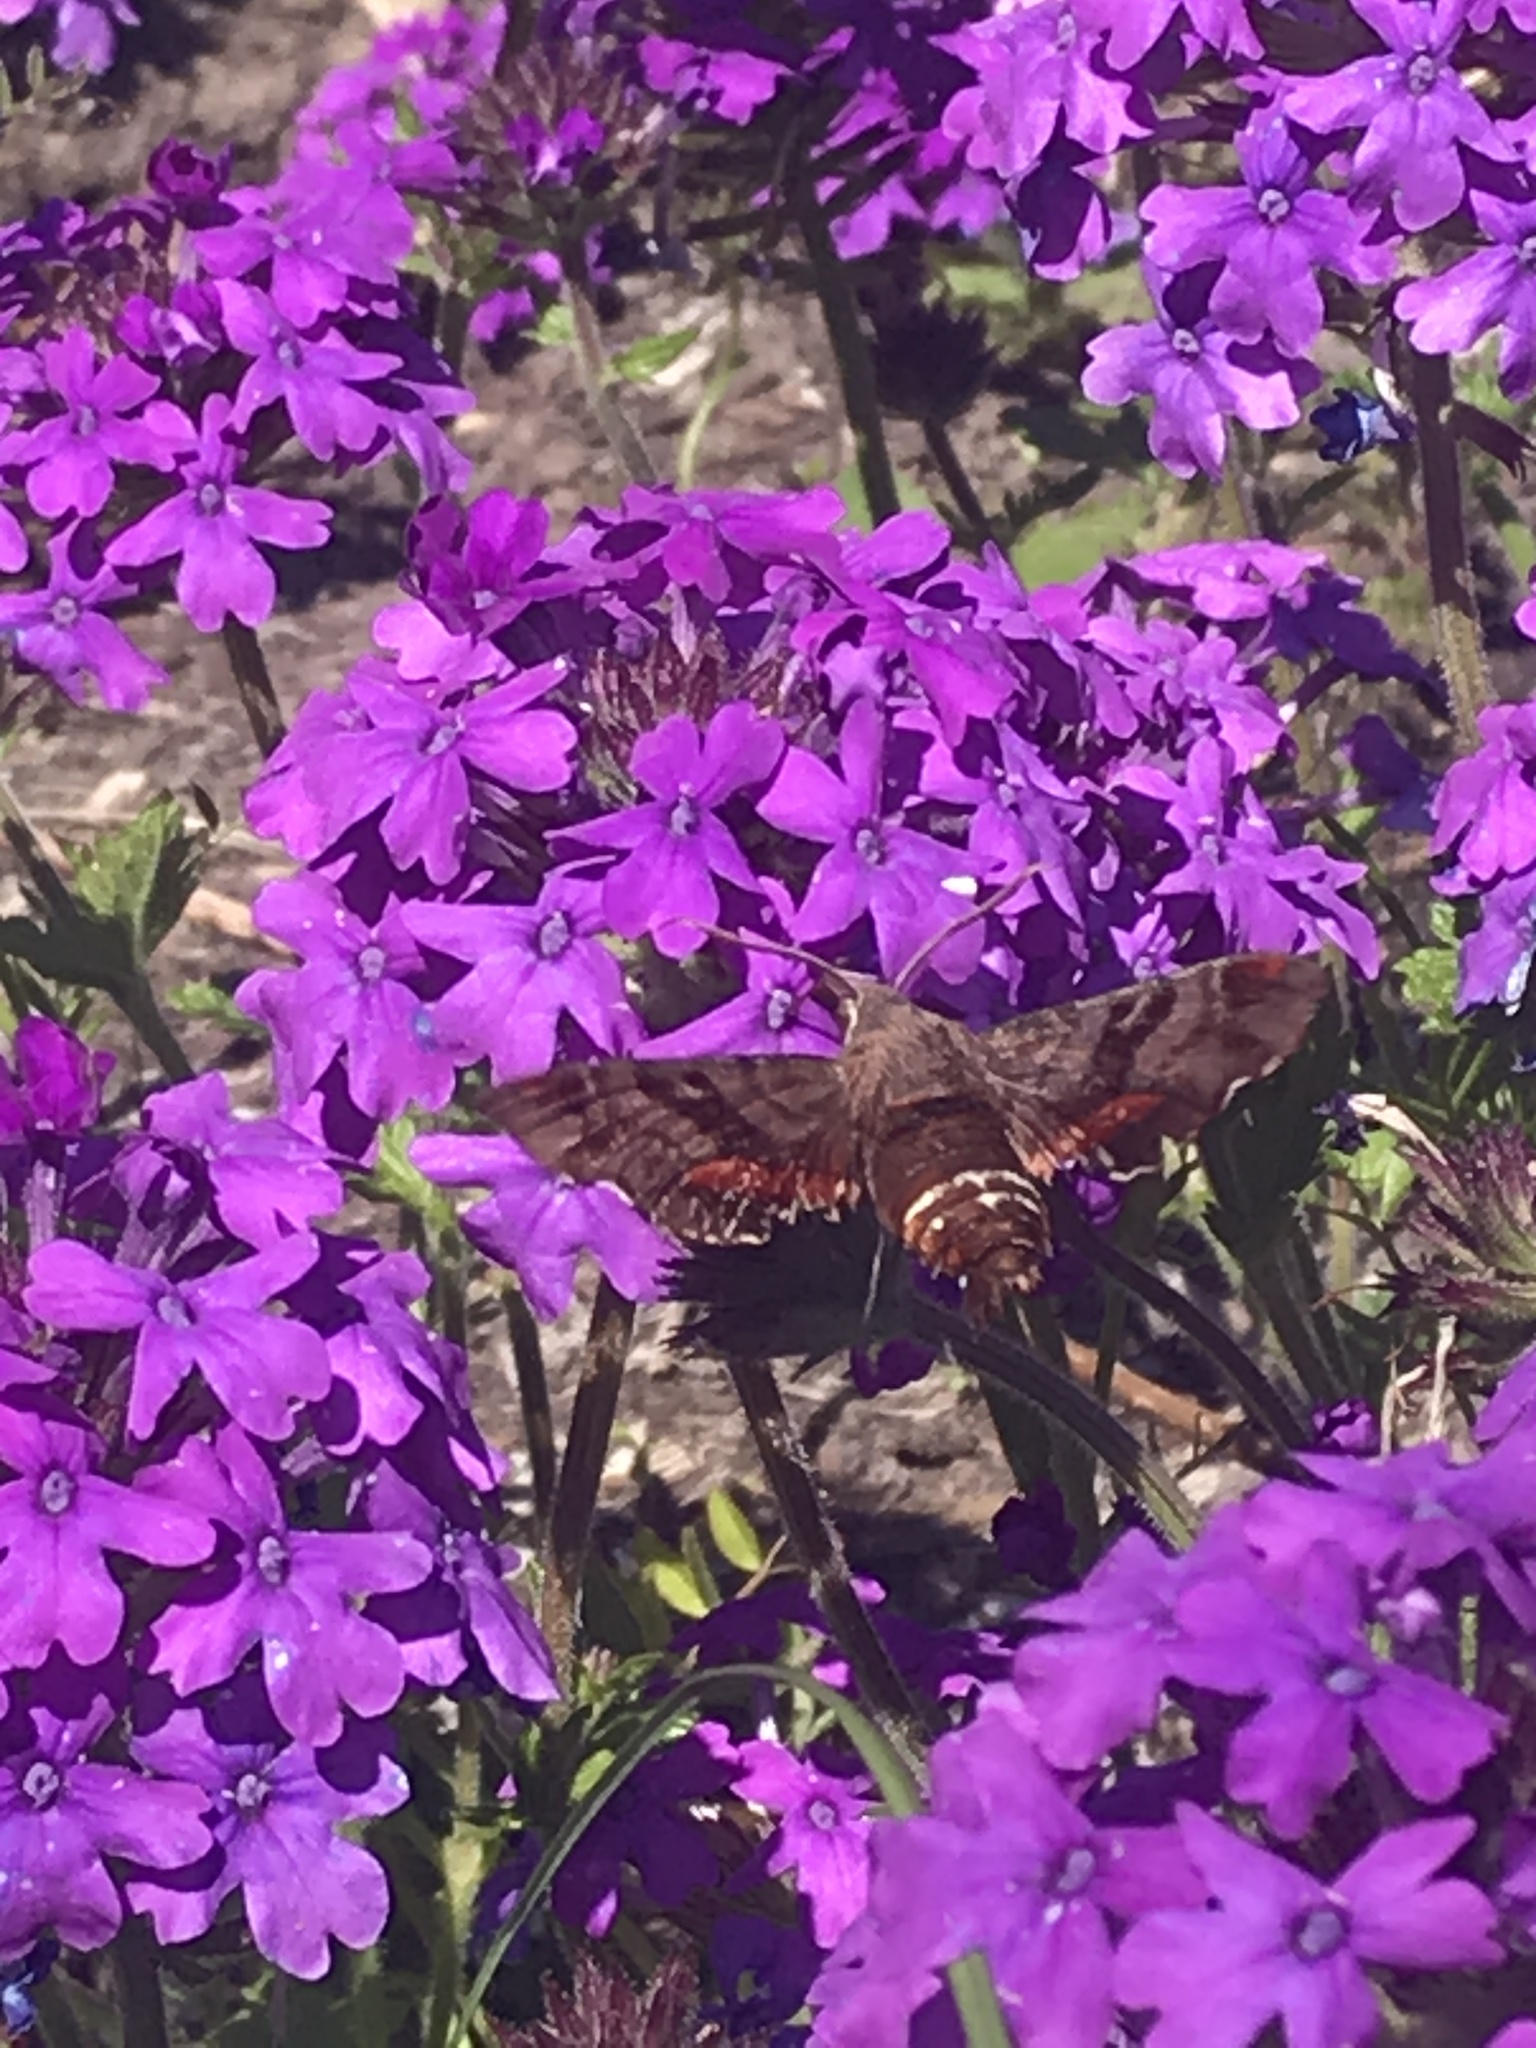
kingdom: Animalia
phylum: Arthropoda
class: Insecta
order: Lepidoptera
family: Sphingidae
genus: Amphion
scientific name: Amphion floridensis
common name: Nessus sphinx
